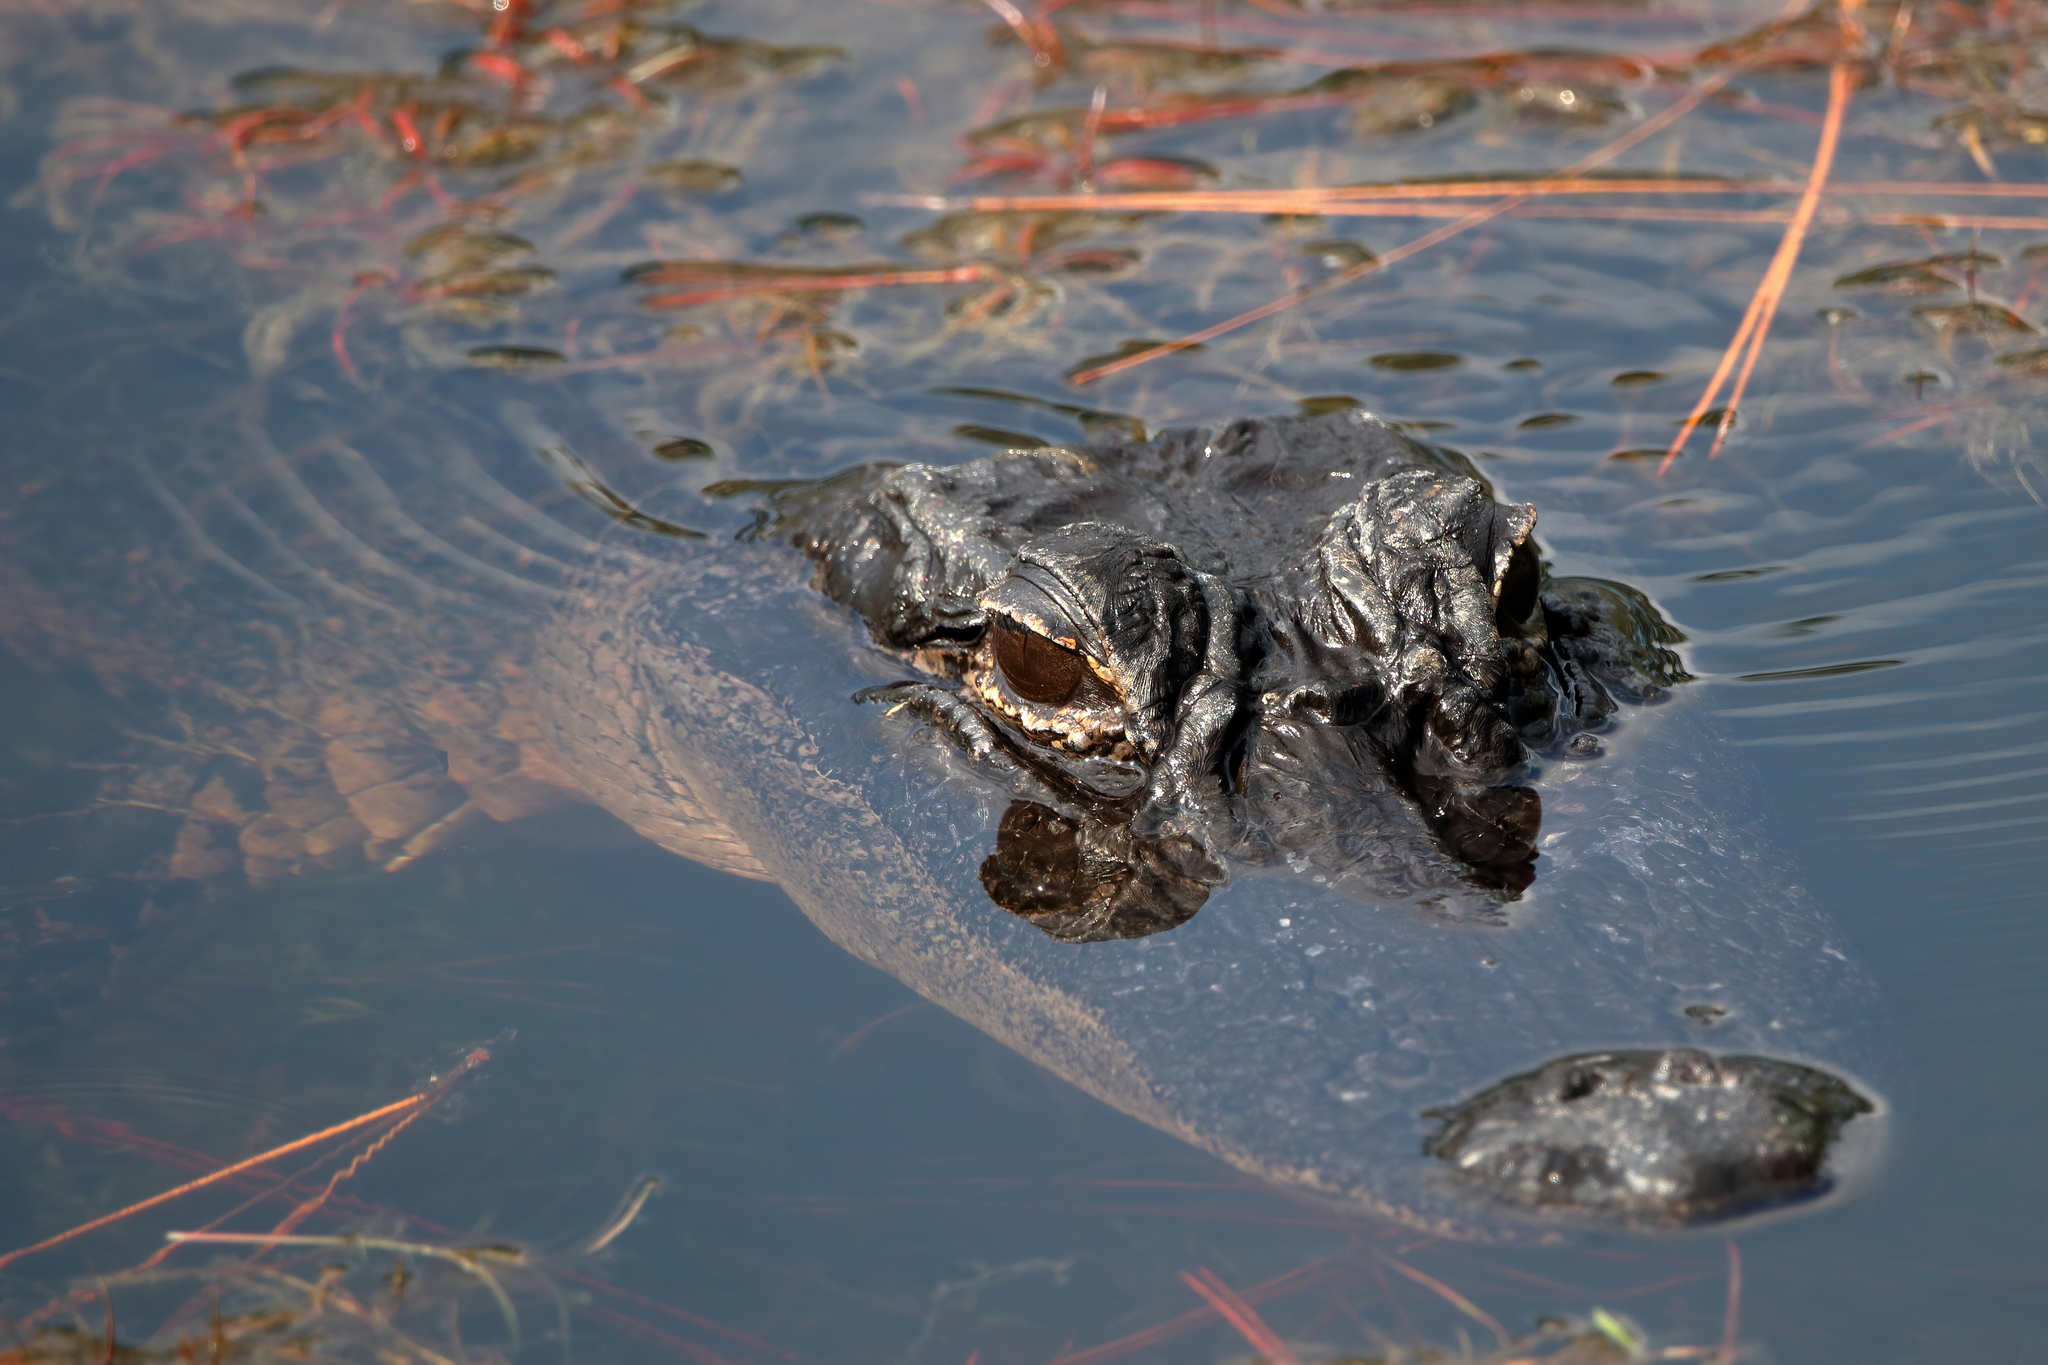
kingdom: Animalia
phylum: Chordata
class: Crocodylia
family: Alligatoridae
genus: Alligator
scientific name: Alligator mississippiensis
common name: American alligator
